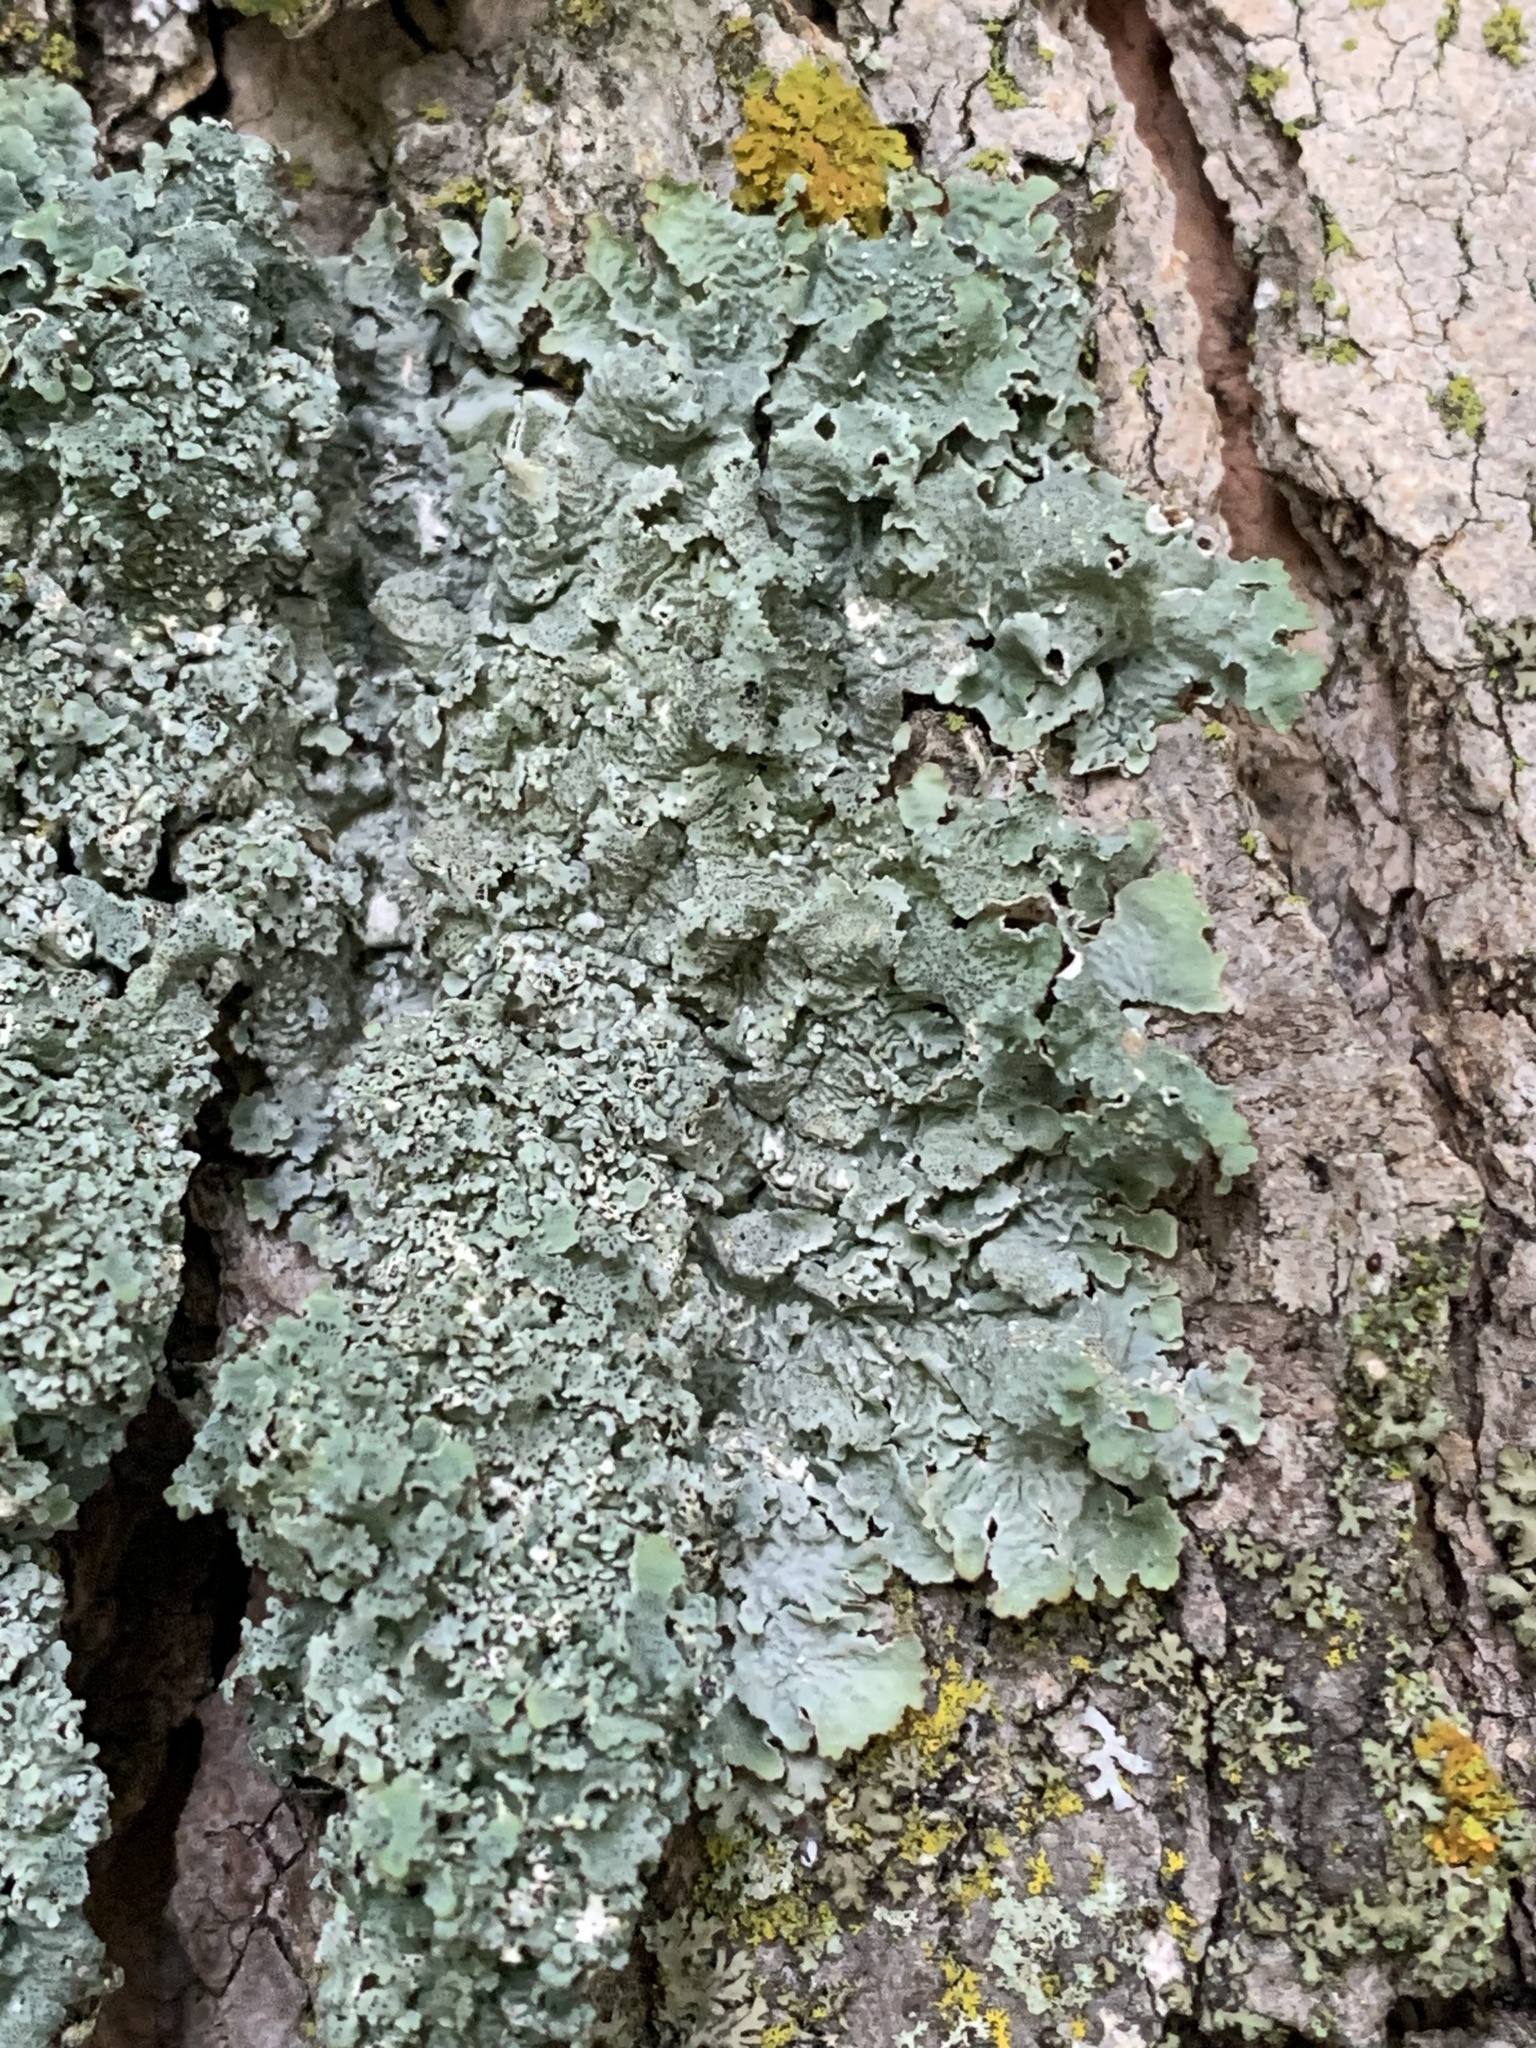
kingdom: Fungi
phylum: Ascomycota
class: Lecanoromycetes
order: Lecanorales
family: Parmeliaceae
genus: Punctelia
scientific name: Punctelia bolliana
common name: Eastern speckled shield lichen
